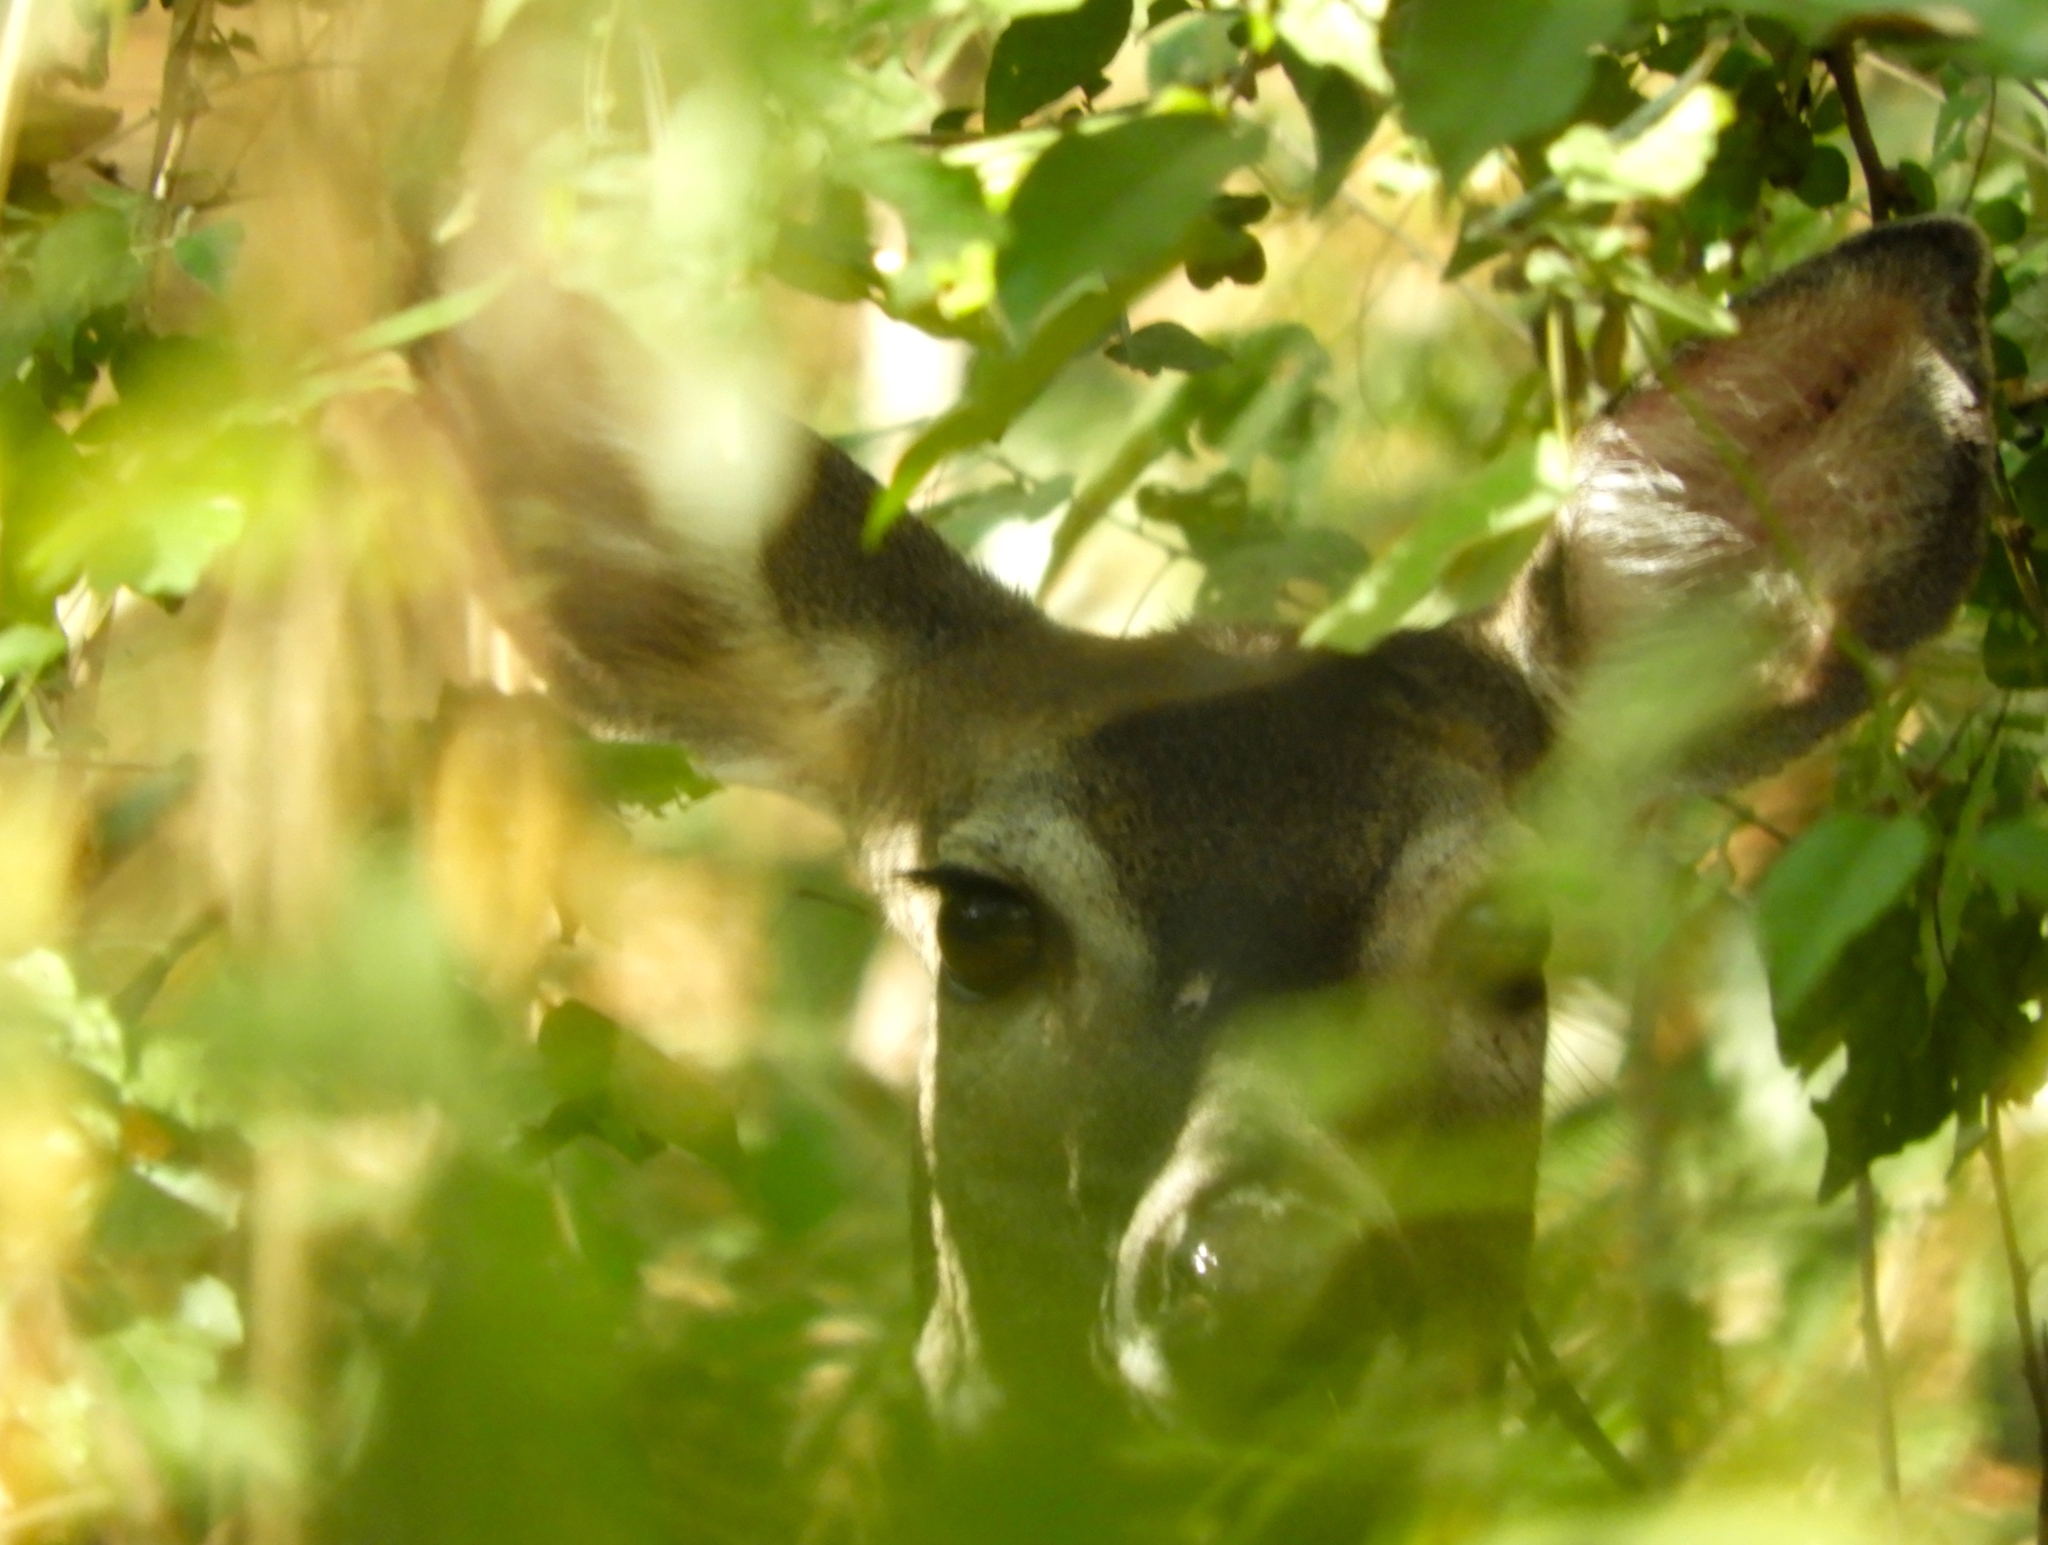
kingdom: Animalia
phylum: Chordata
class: Mammalia
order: Artiodactyla
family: Cervidae
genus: Odocoileus
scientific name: Odocoileus virginianus
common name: White-tailed deer
